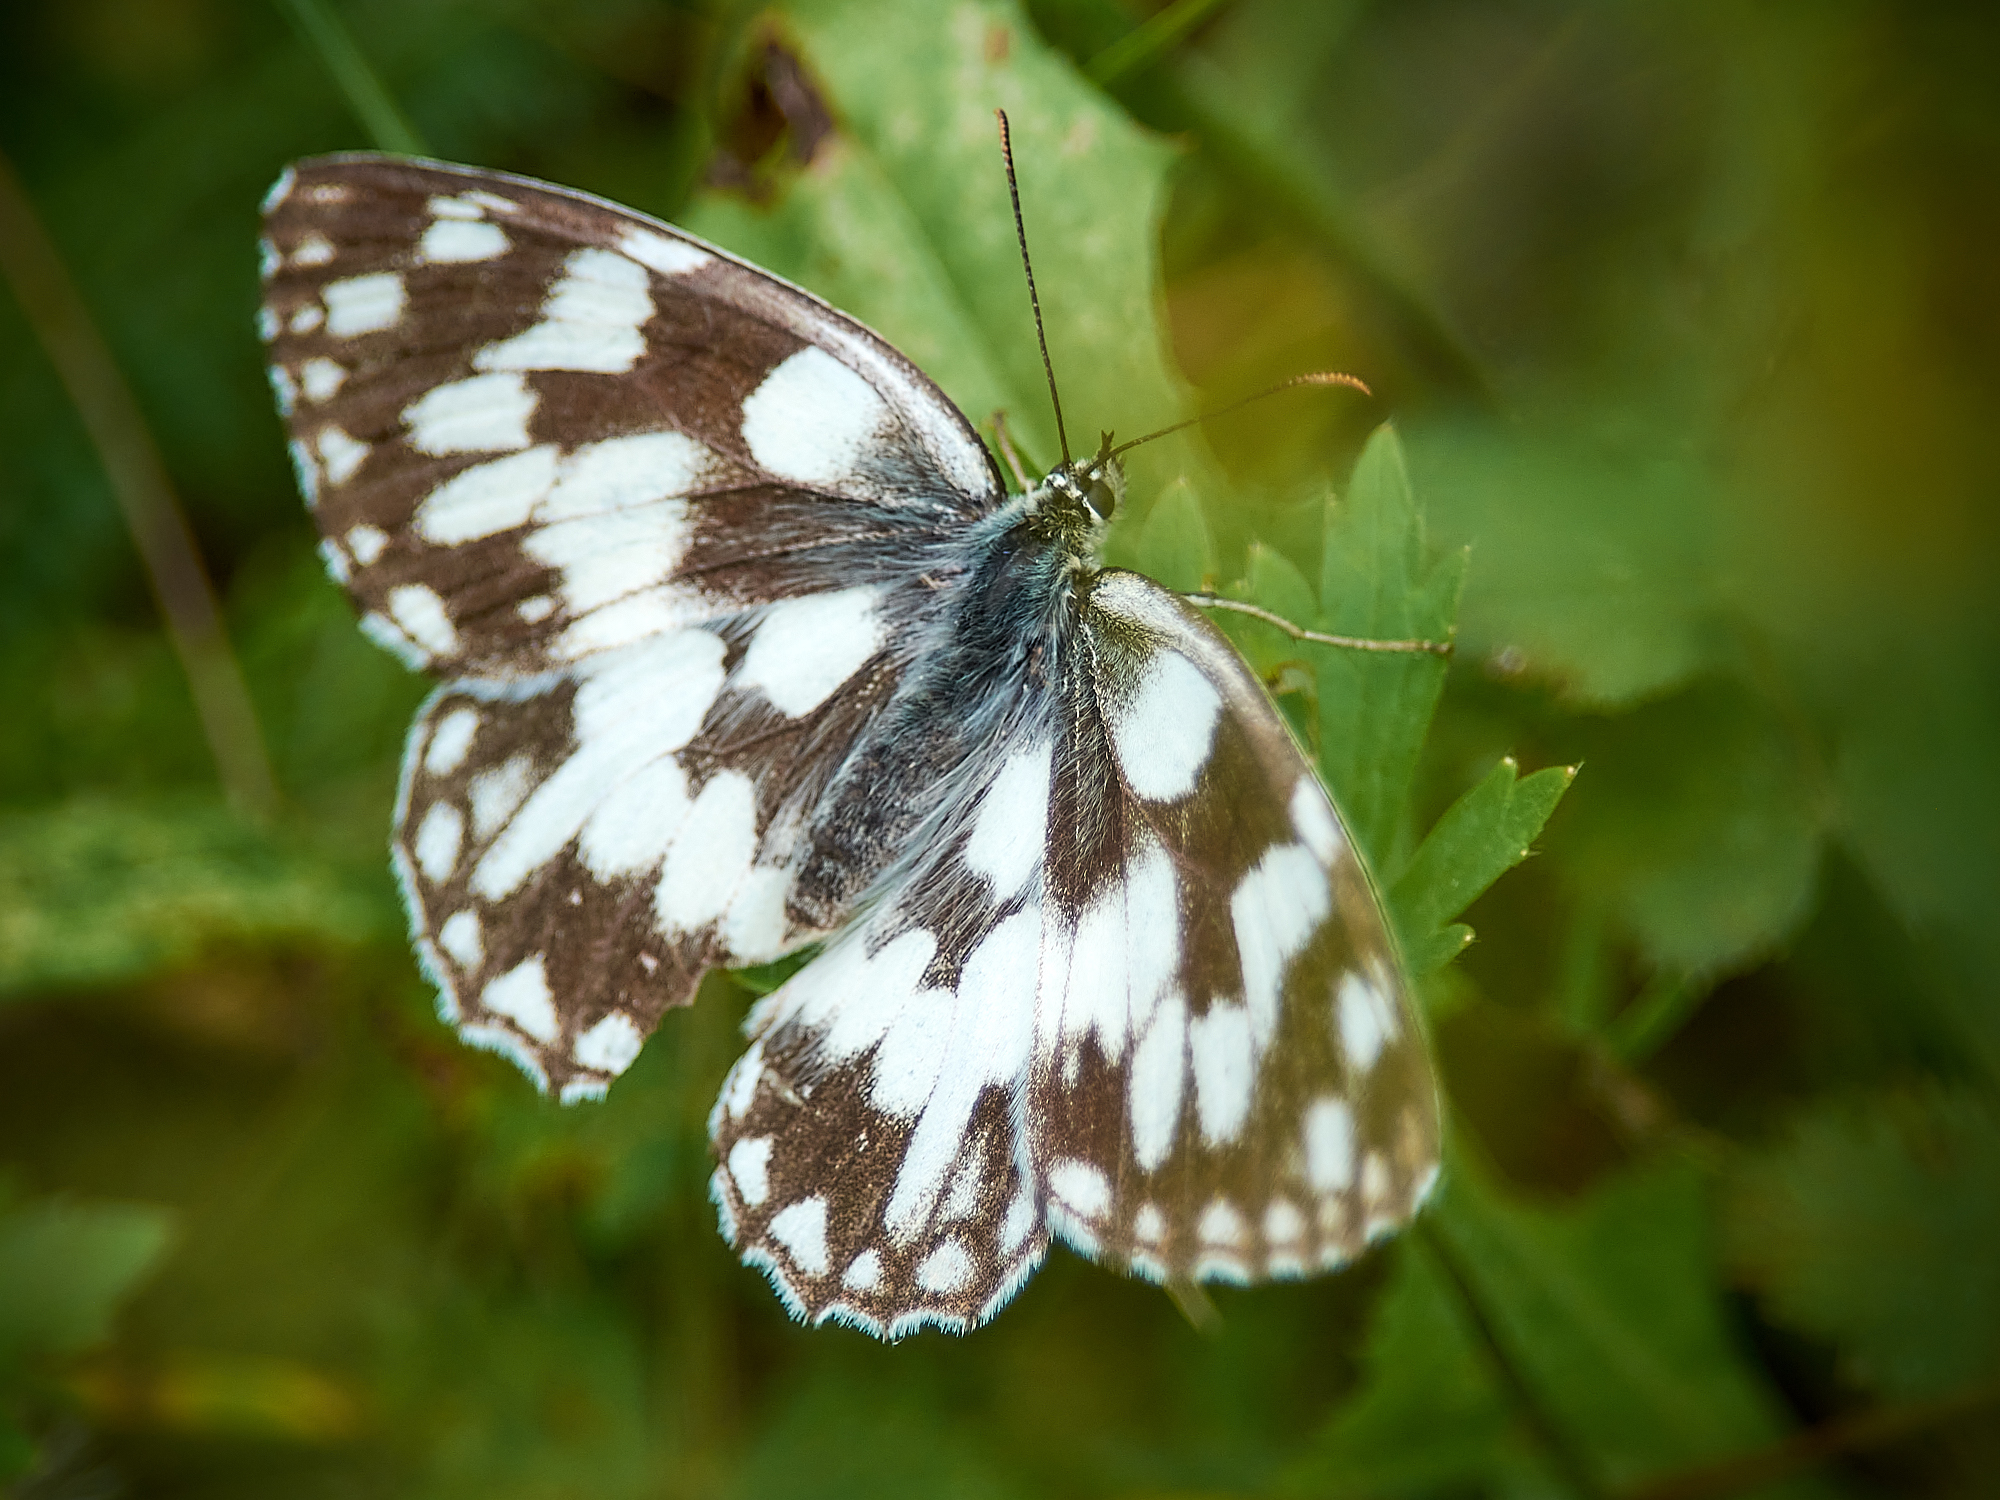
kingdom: Animalia
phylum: Arthropoda
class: Insecta
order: Lepidoptera
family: Nymphalidae
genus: Melanargia
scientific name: Melanargia galathea
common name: Marbled white
